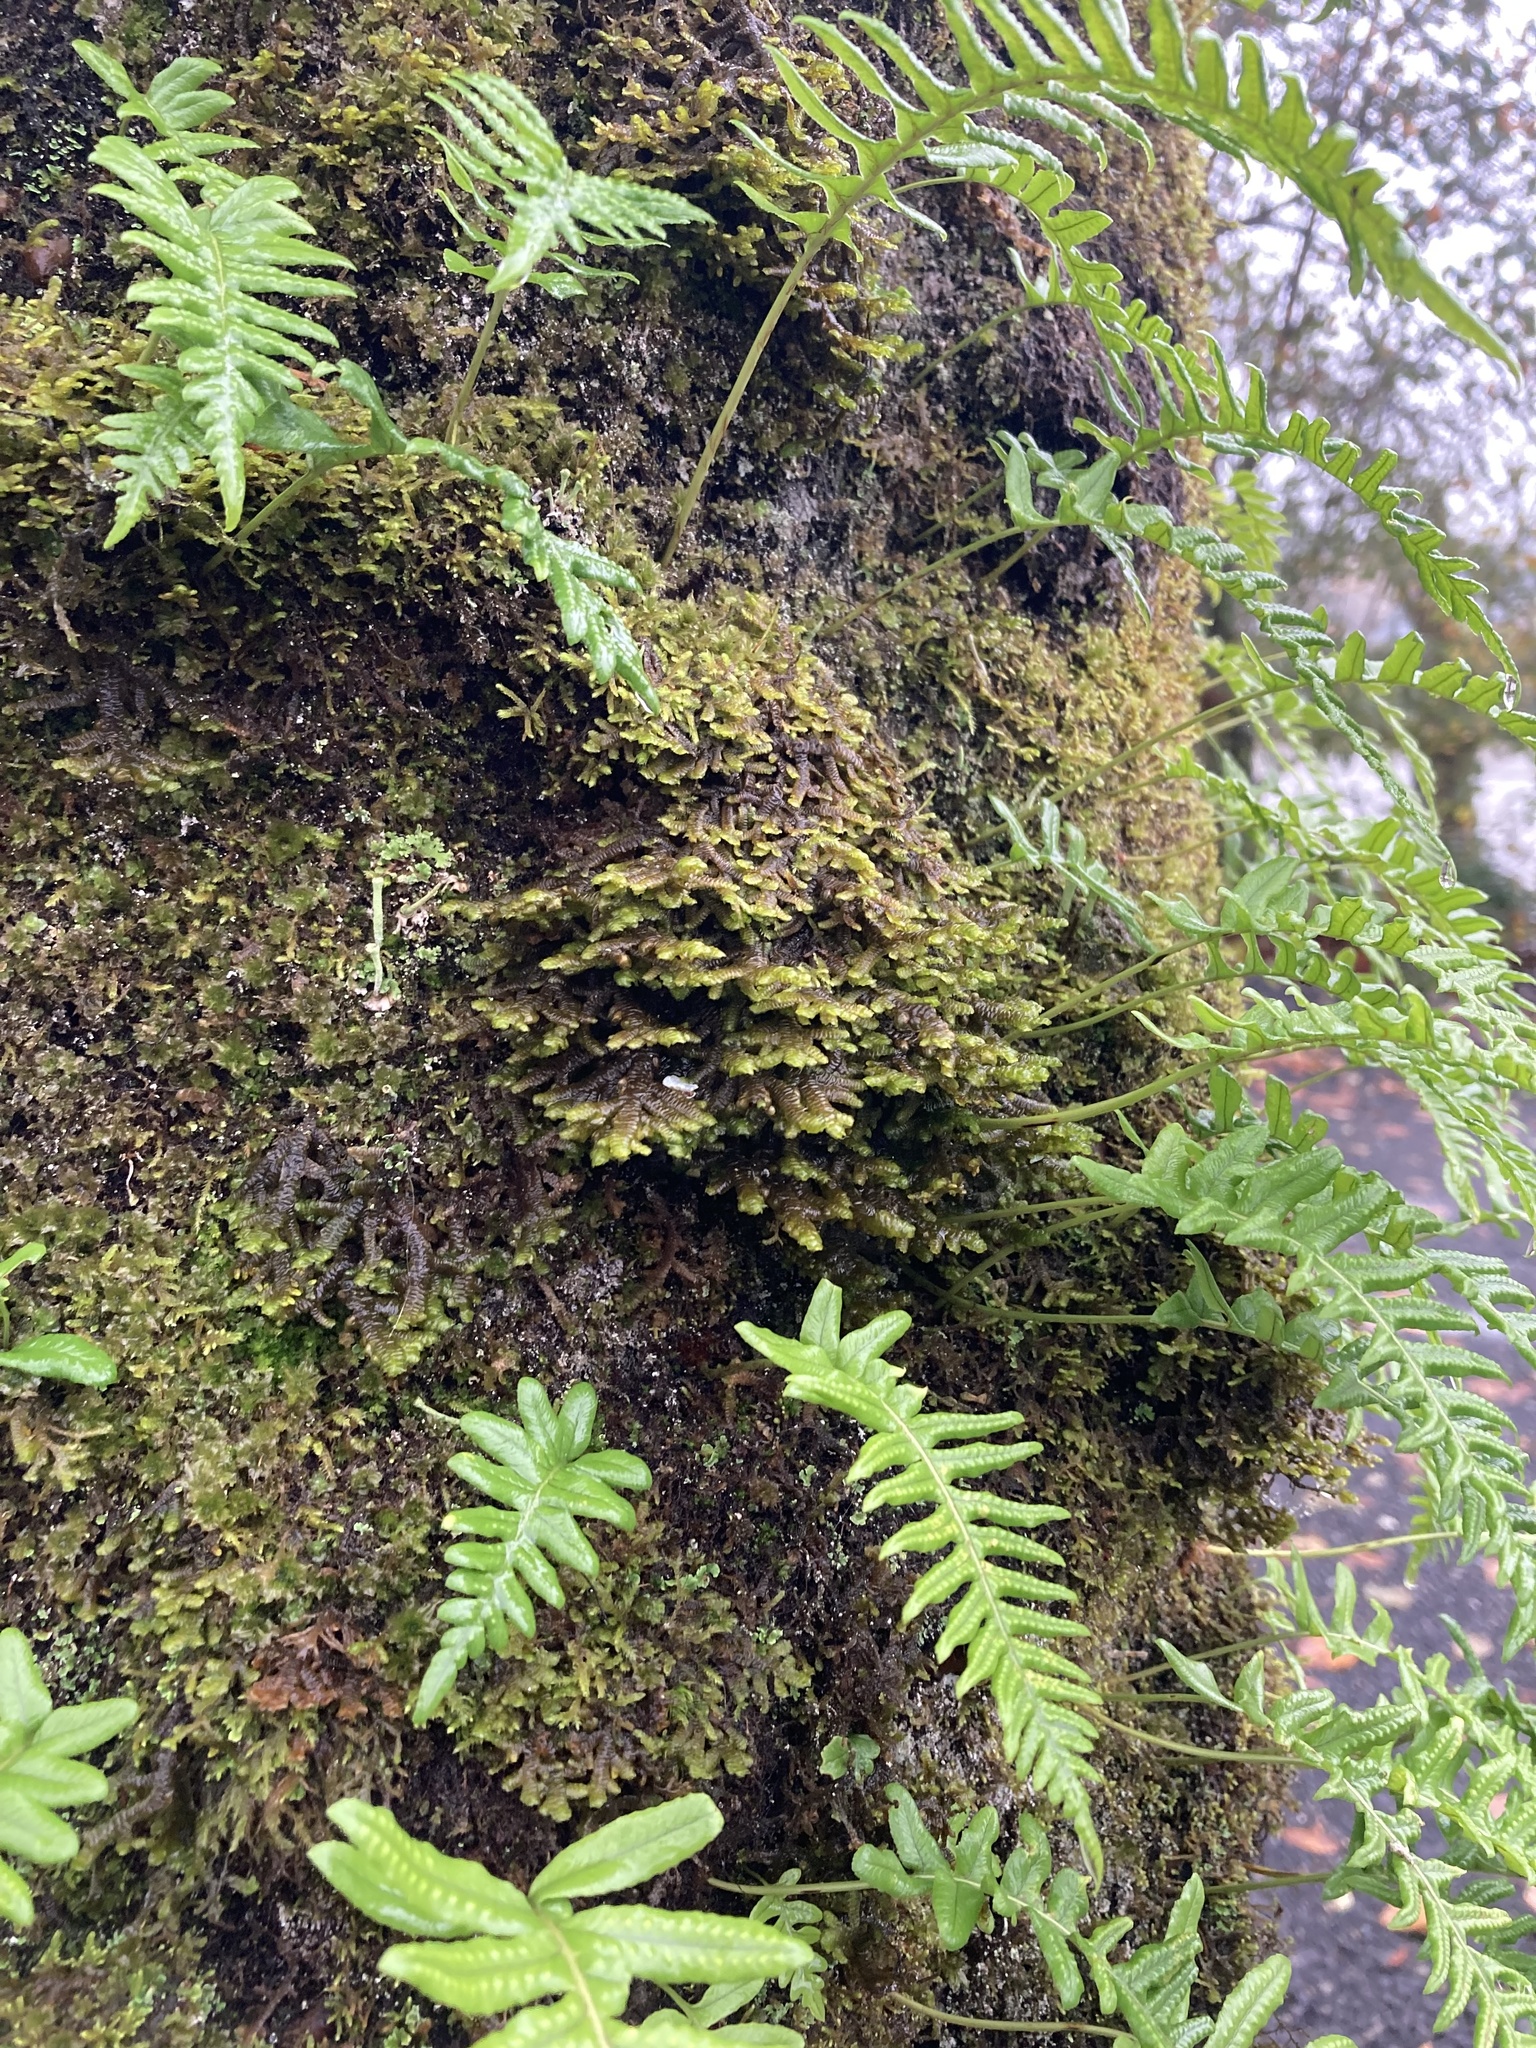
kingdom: Plantae
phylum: Marchantiophyta
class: Jungermanniopsida
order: Porellales
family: Porellaceae
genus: Porella
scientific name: Porella navicularis
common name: Tree ruffle liverwort
